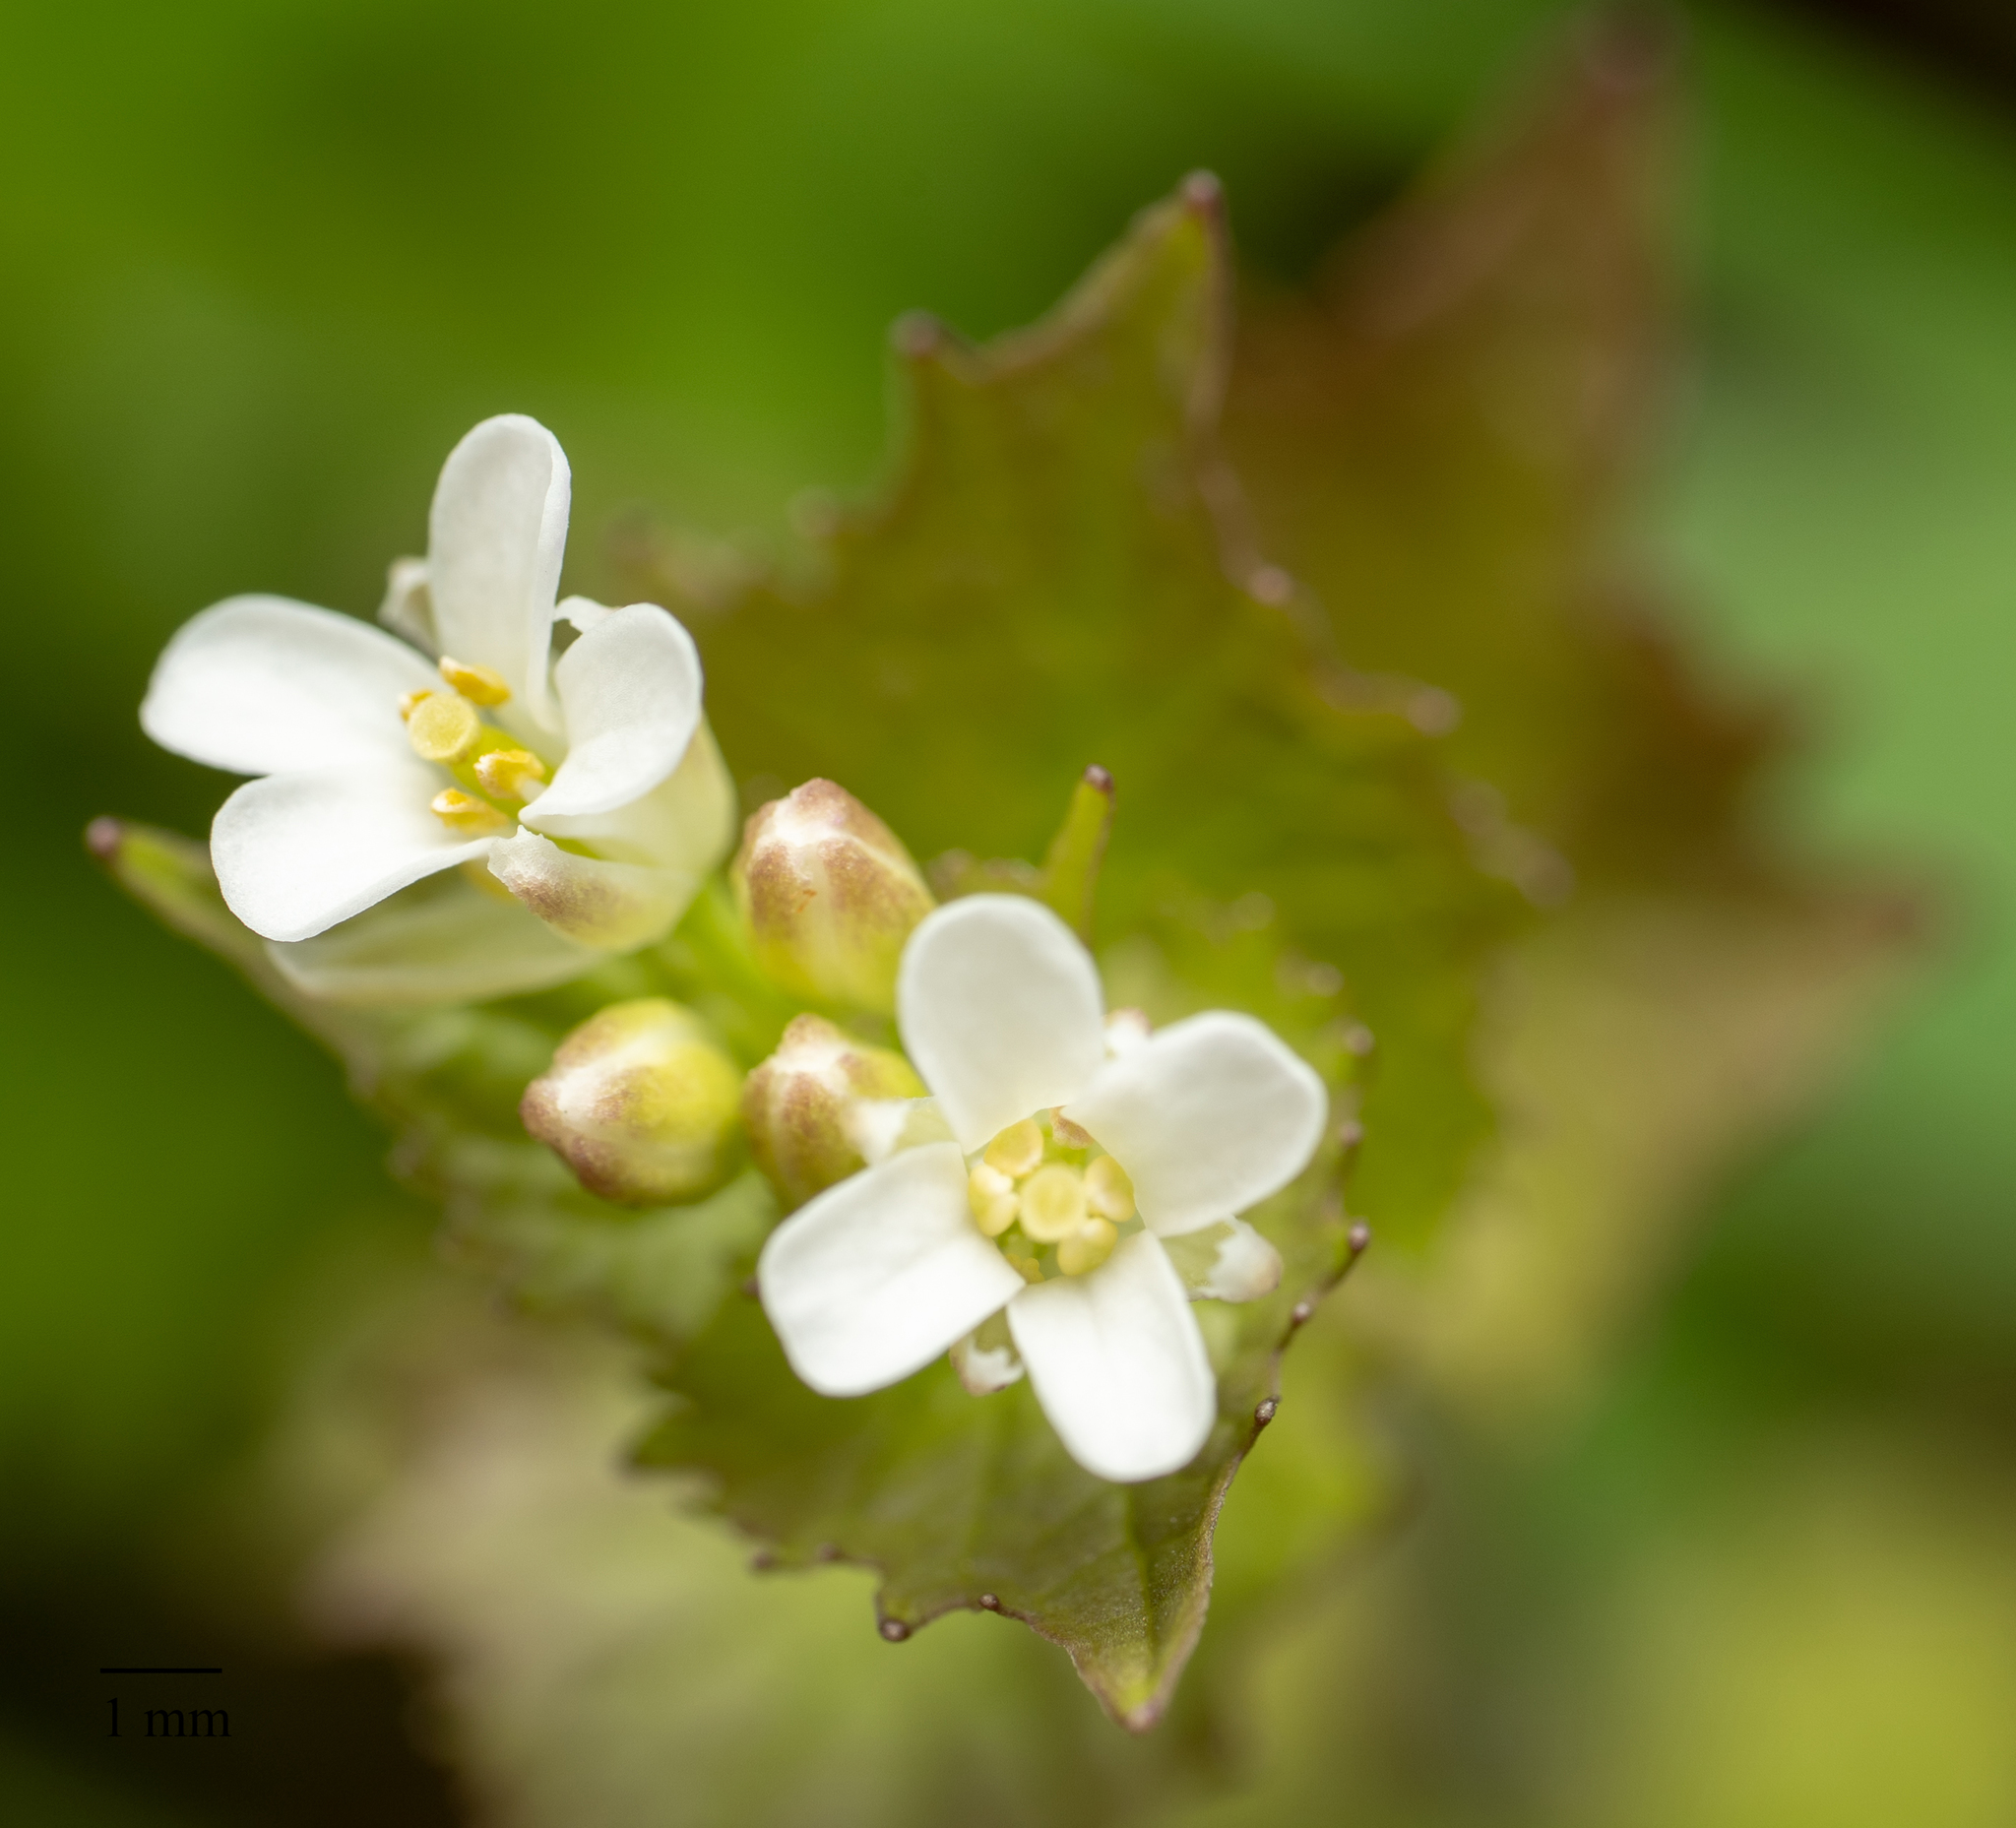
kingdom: Plantae
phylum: Tracheophyta
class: Magnoliopsida
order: Brassicales
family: Brassicaceae
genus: Alliaria
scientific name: Alliaria petiolata
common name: Garlic mustard
